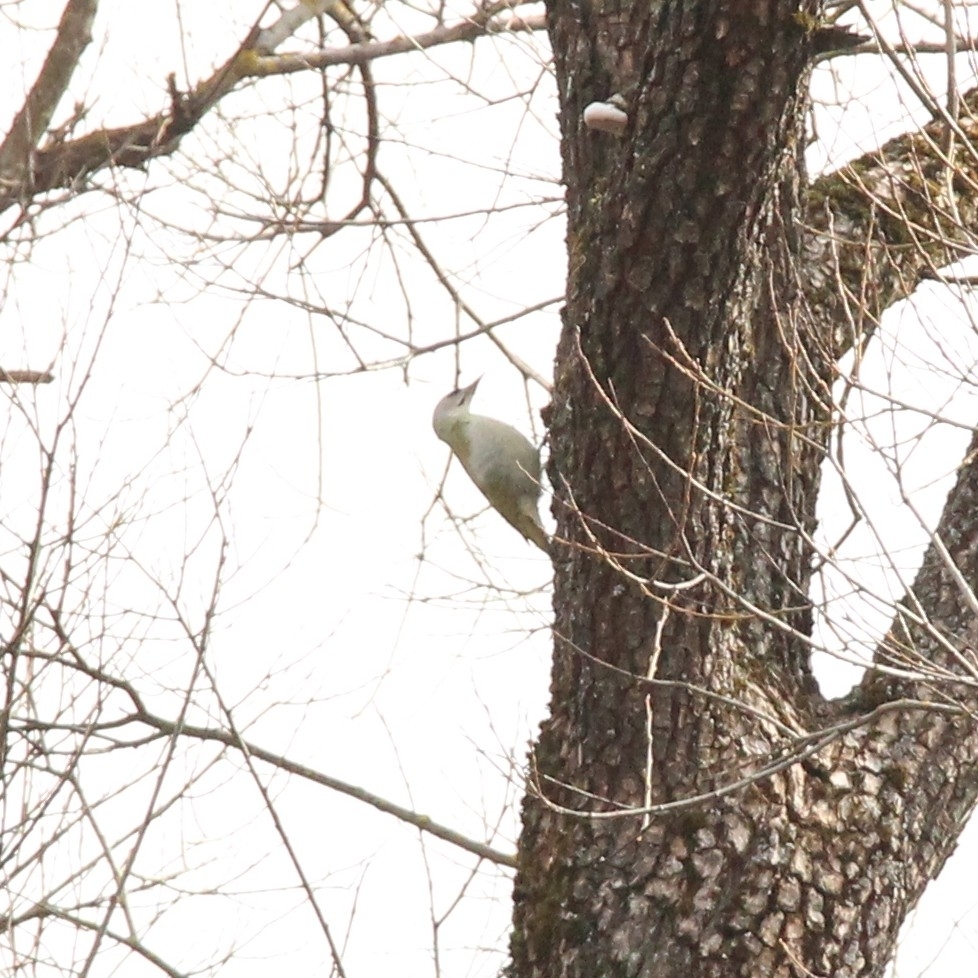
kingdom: Animalia
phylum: Chordata
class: Aves
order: Piciformes
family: Picidae
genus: Picus
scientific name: Picus canus
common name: Grey-headed woodpecker
